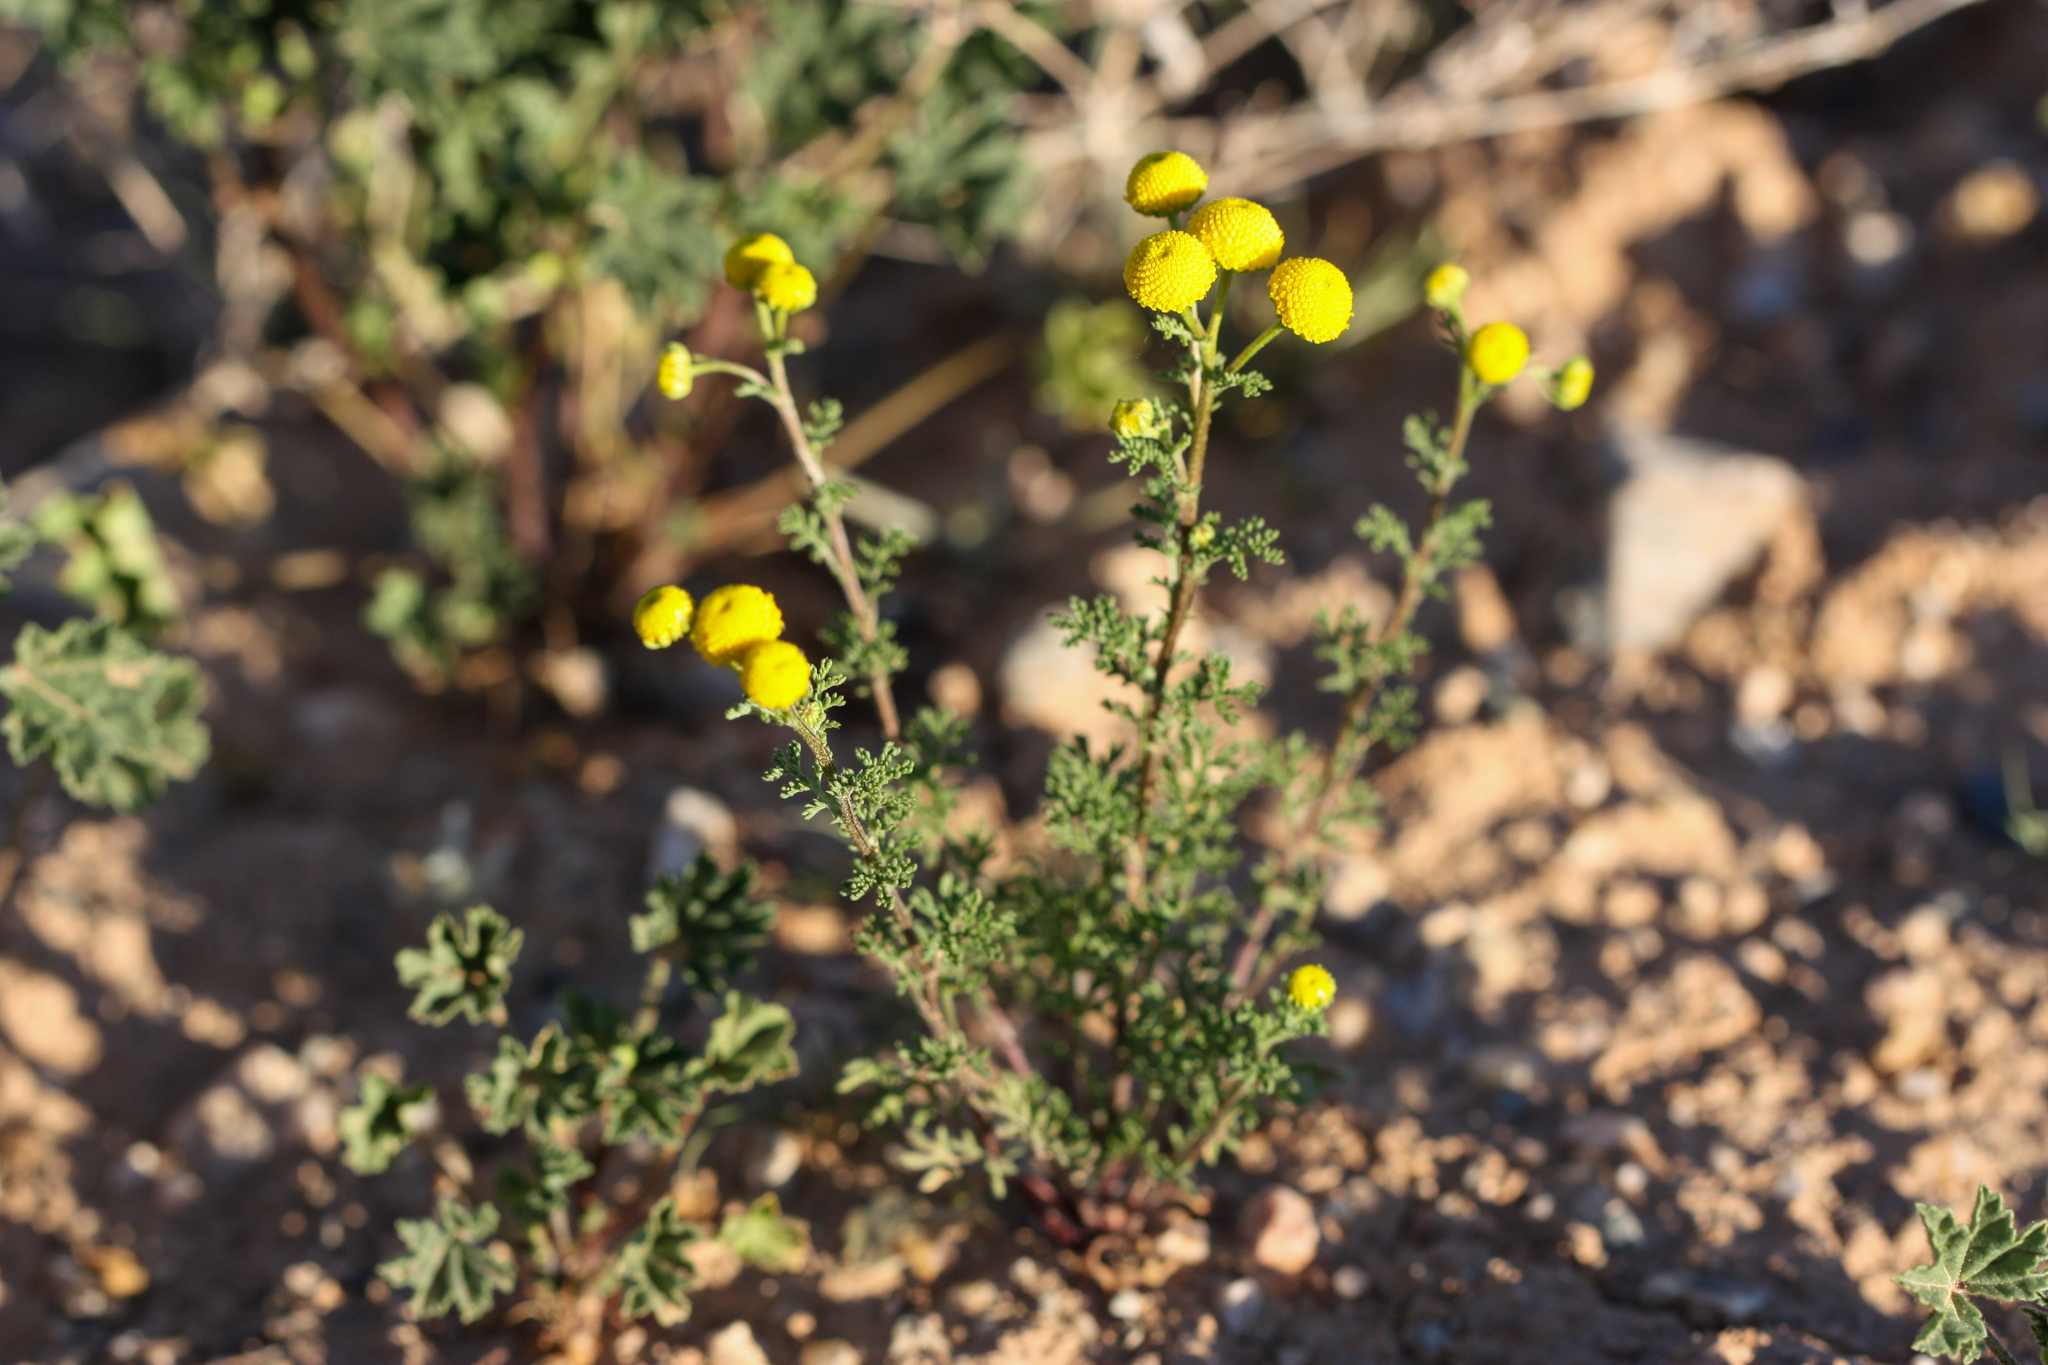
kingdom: Plantae
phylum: Tracheophyta
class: Magnoliopsida
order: Asterales
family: Asteraceae
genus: Oncosiphon
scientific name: Oncosiphon pilulifer
